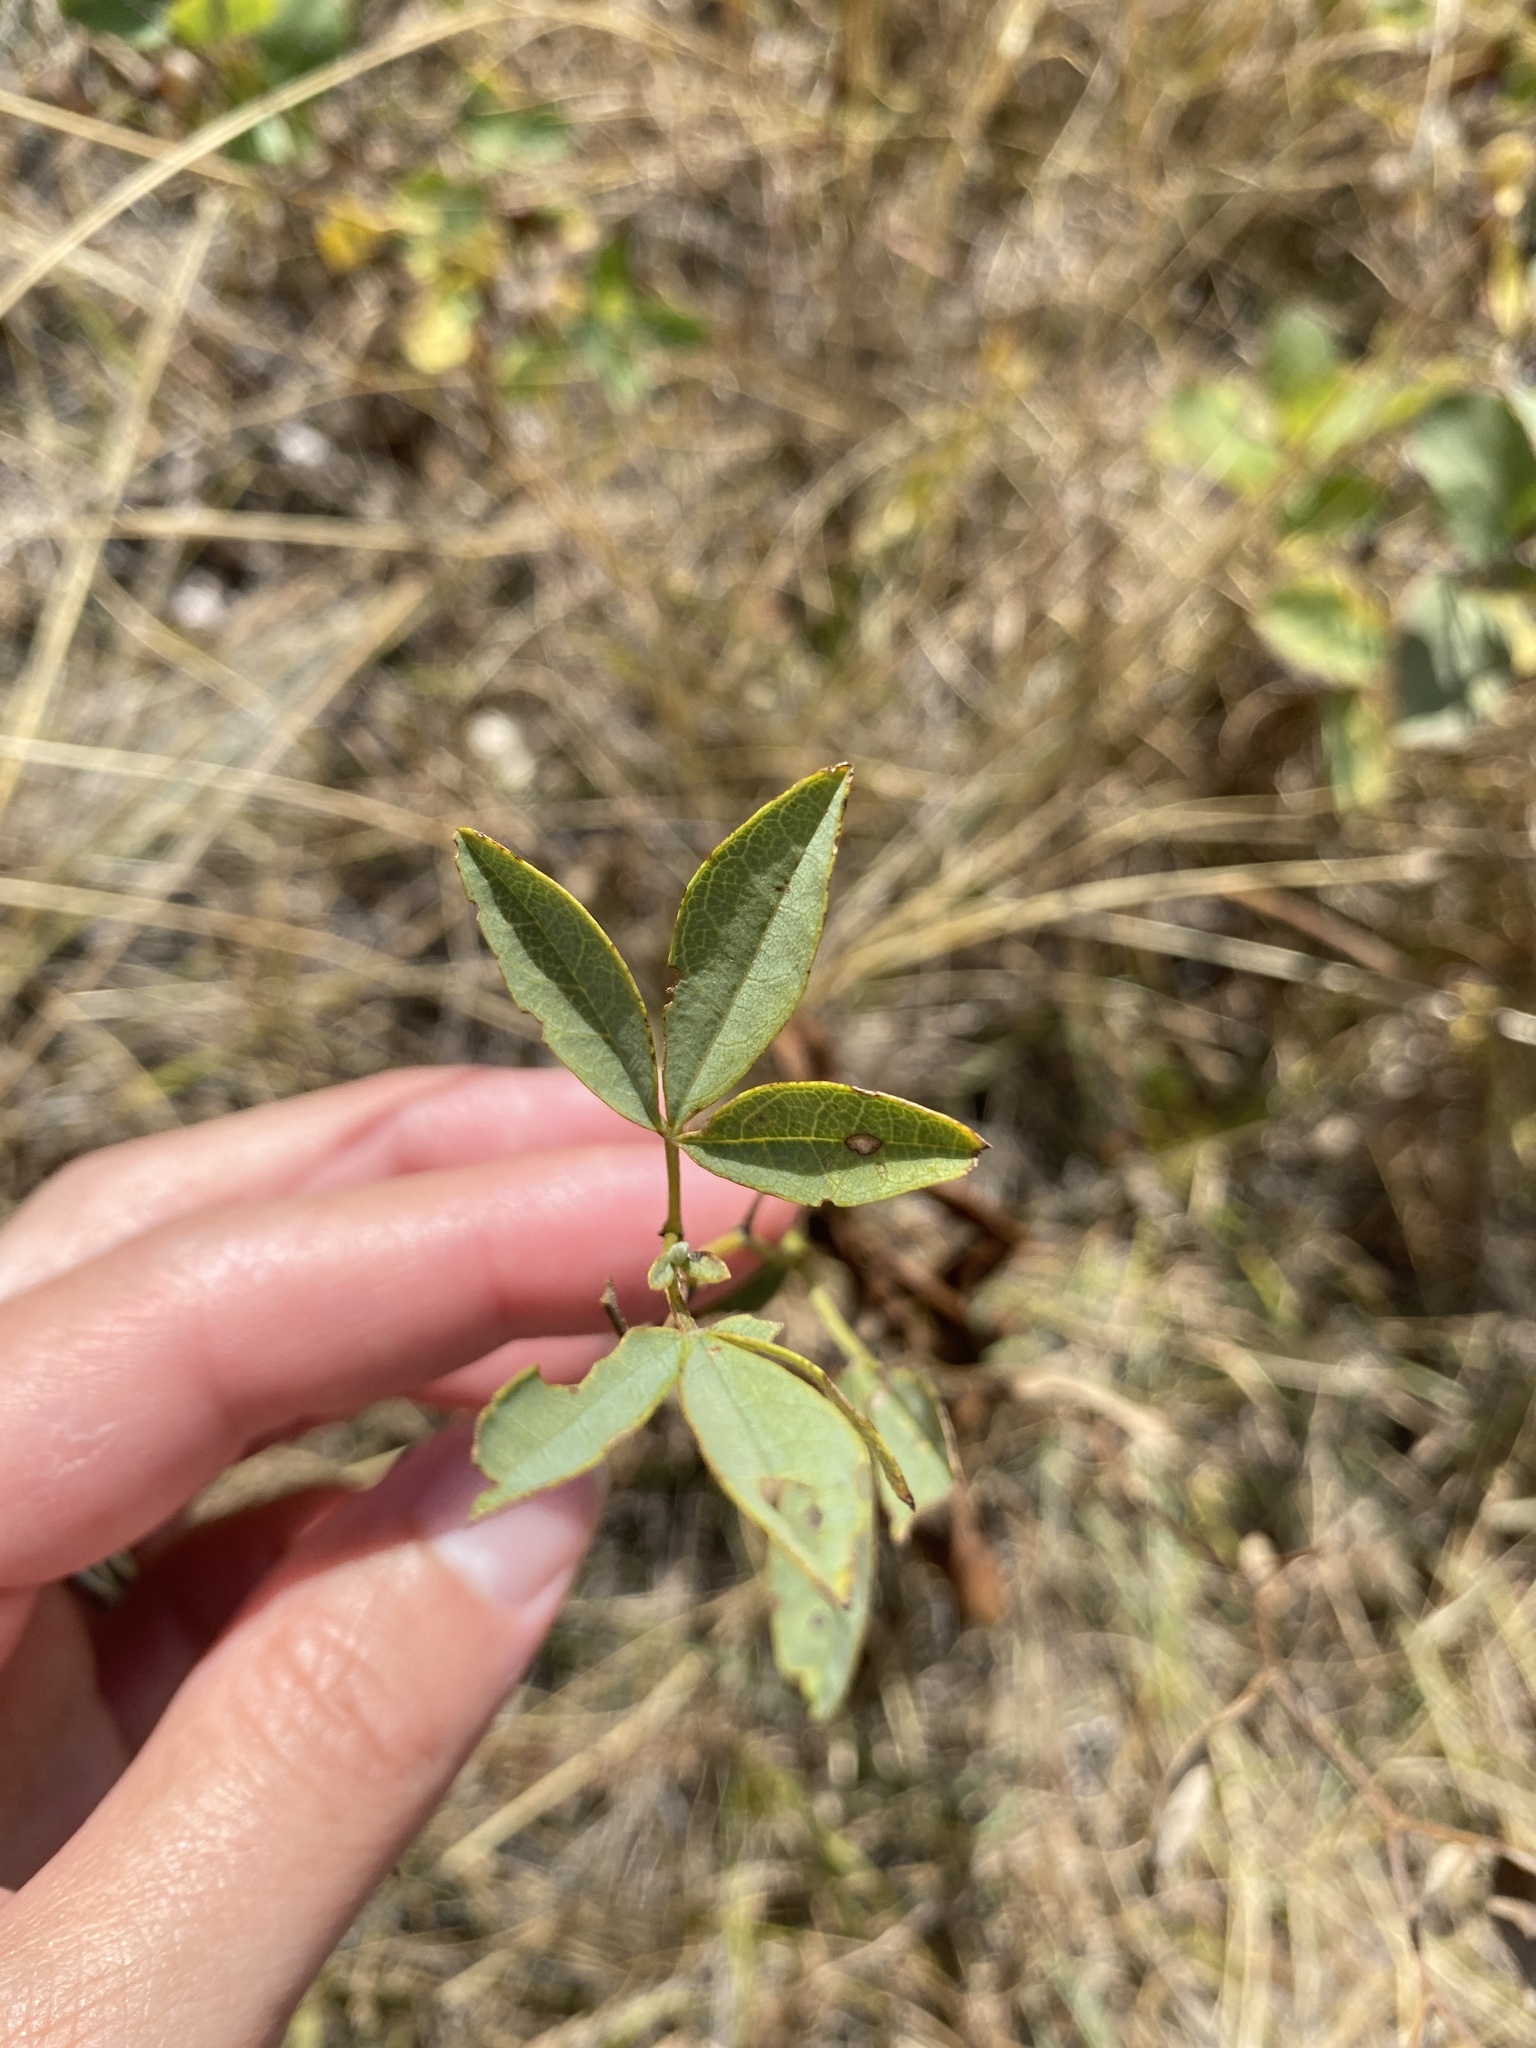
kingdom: Plantae
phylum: Tracheophyta
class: Magnoliopsida
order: Fabales
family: Fabaceae
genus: Thermopsis
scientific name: Thermopsis rhombifolia
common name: Circle-pod-pea
